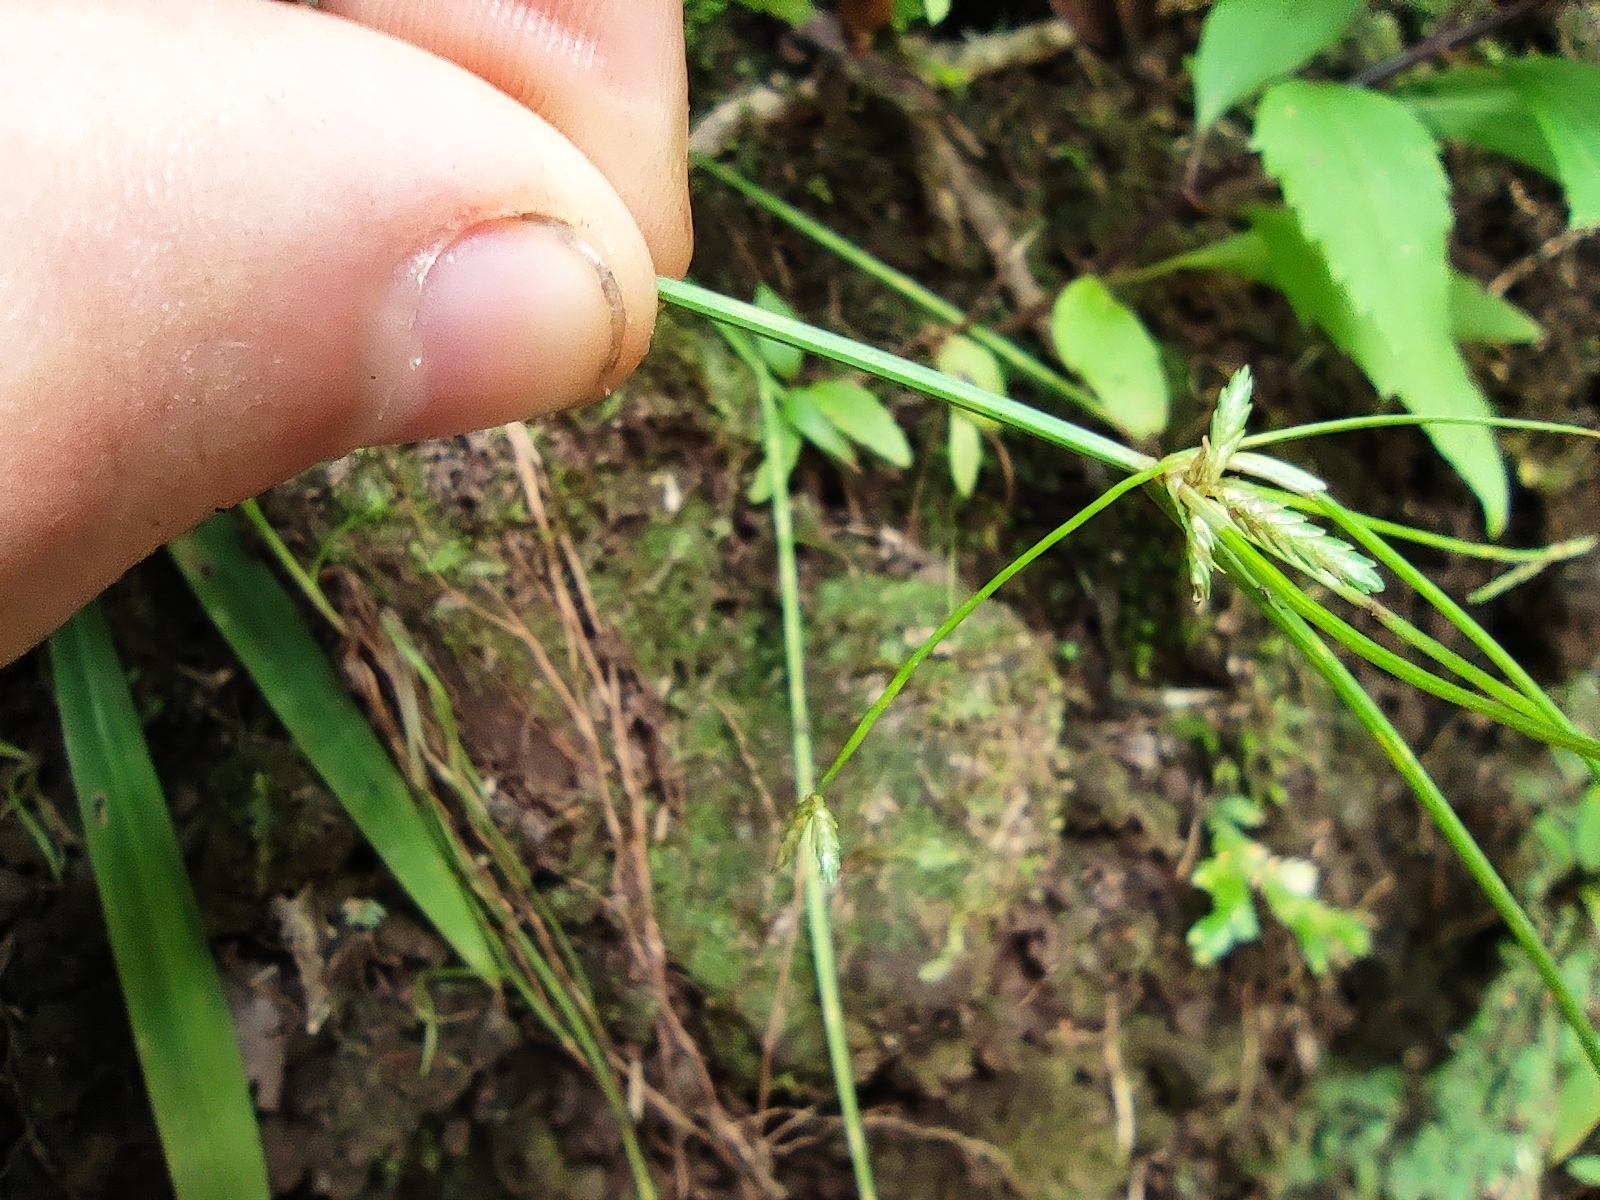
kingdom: Plantae
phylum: Tracheophyta
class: Liliopsida
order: Poales
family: Cyperaceae
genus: Cyperus
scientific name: Cyperus haspan
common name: Haspan flatsedge
